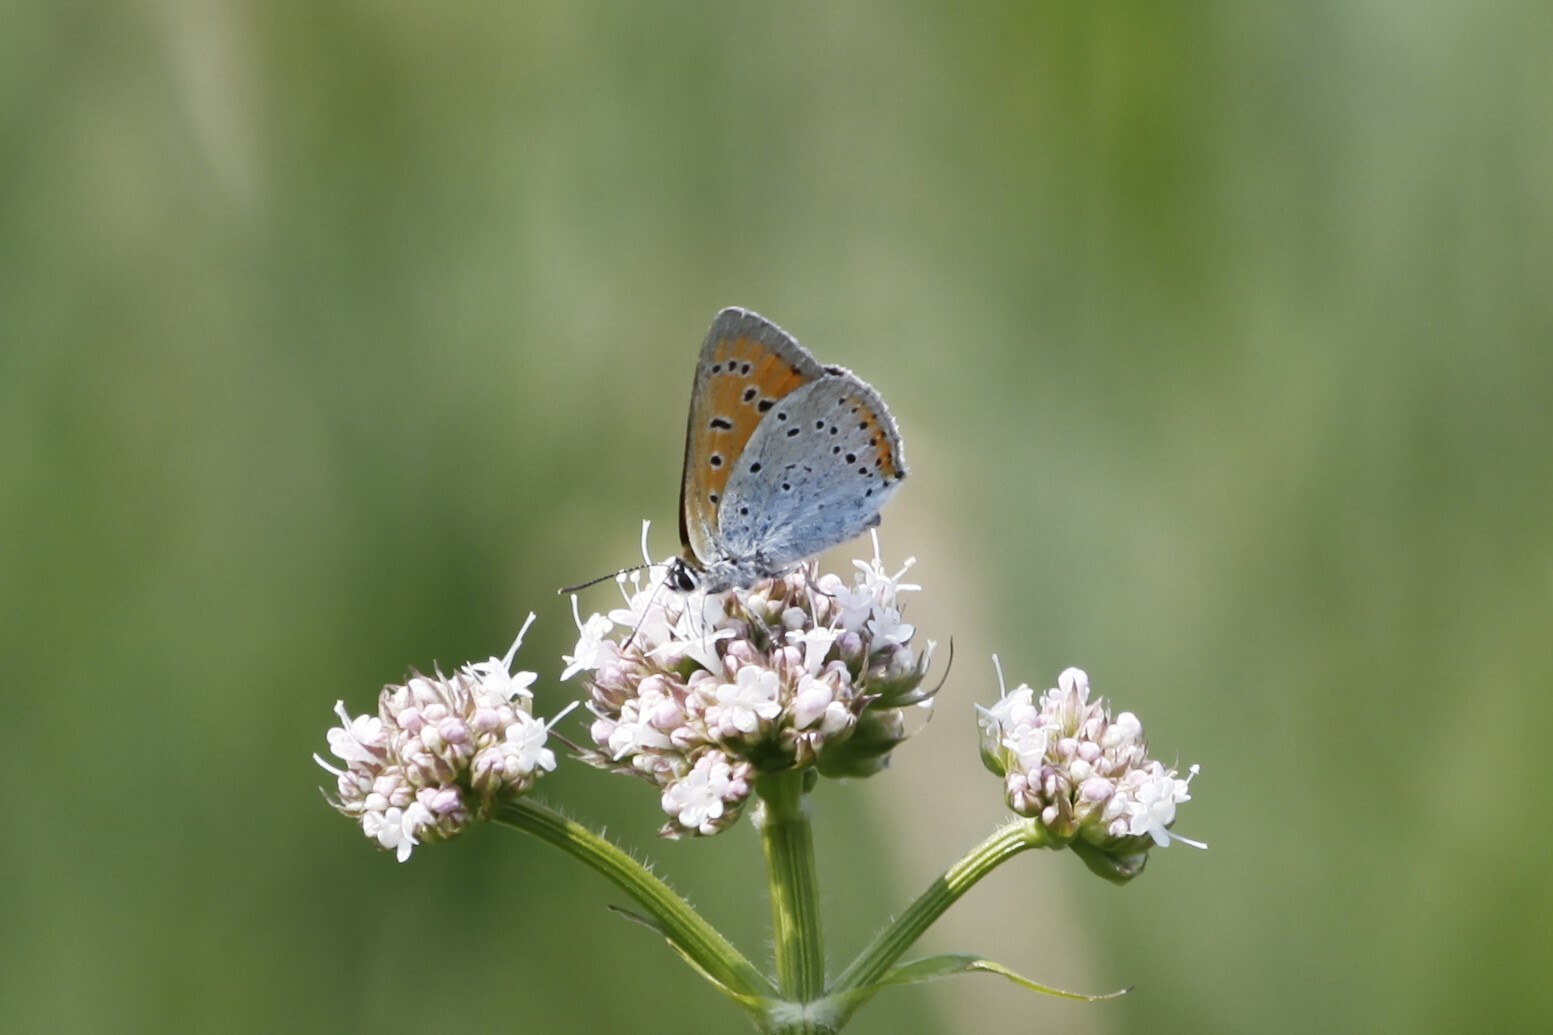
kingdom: Animalia
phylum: Arthropoda
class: Insecta
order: Lepidoptera
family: Lycaenidae
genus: Lycaena
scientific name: Lycaena dispar
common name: Large copper
